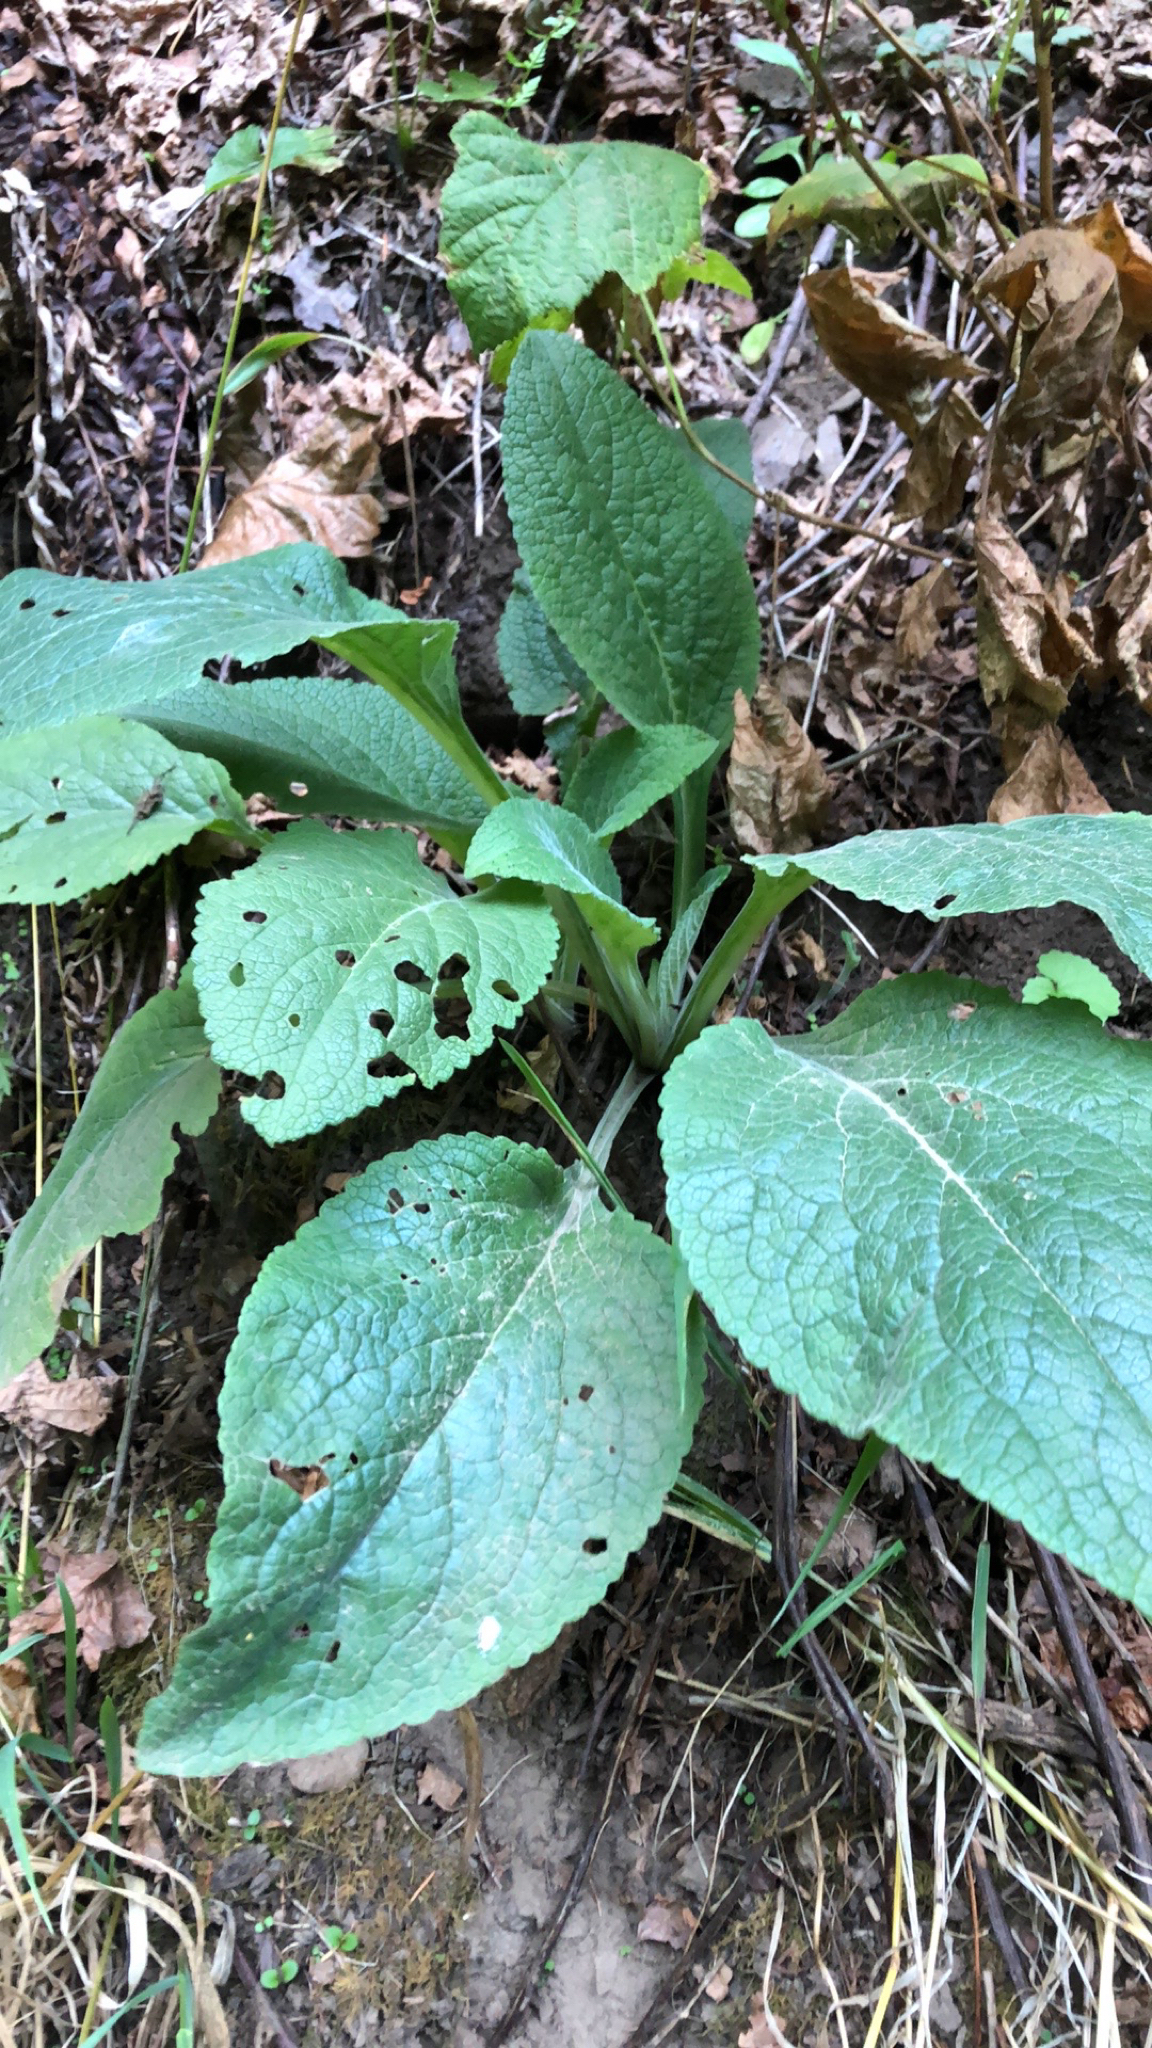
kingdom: Plantae
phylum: Tracheophyta
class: Magnoliopsida
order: Lamiales
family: Plantaginaceae
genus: Digitalis
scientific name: Digitalis purpurea
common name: Foxglove
